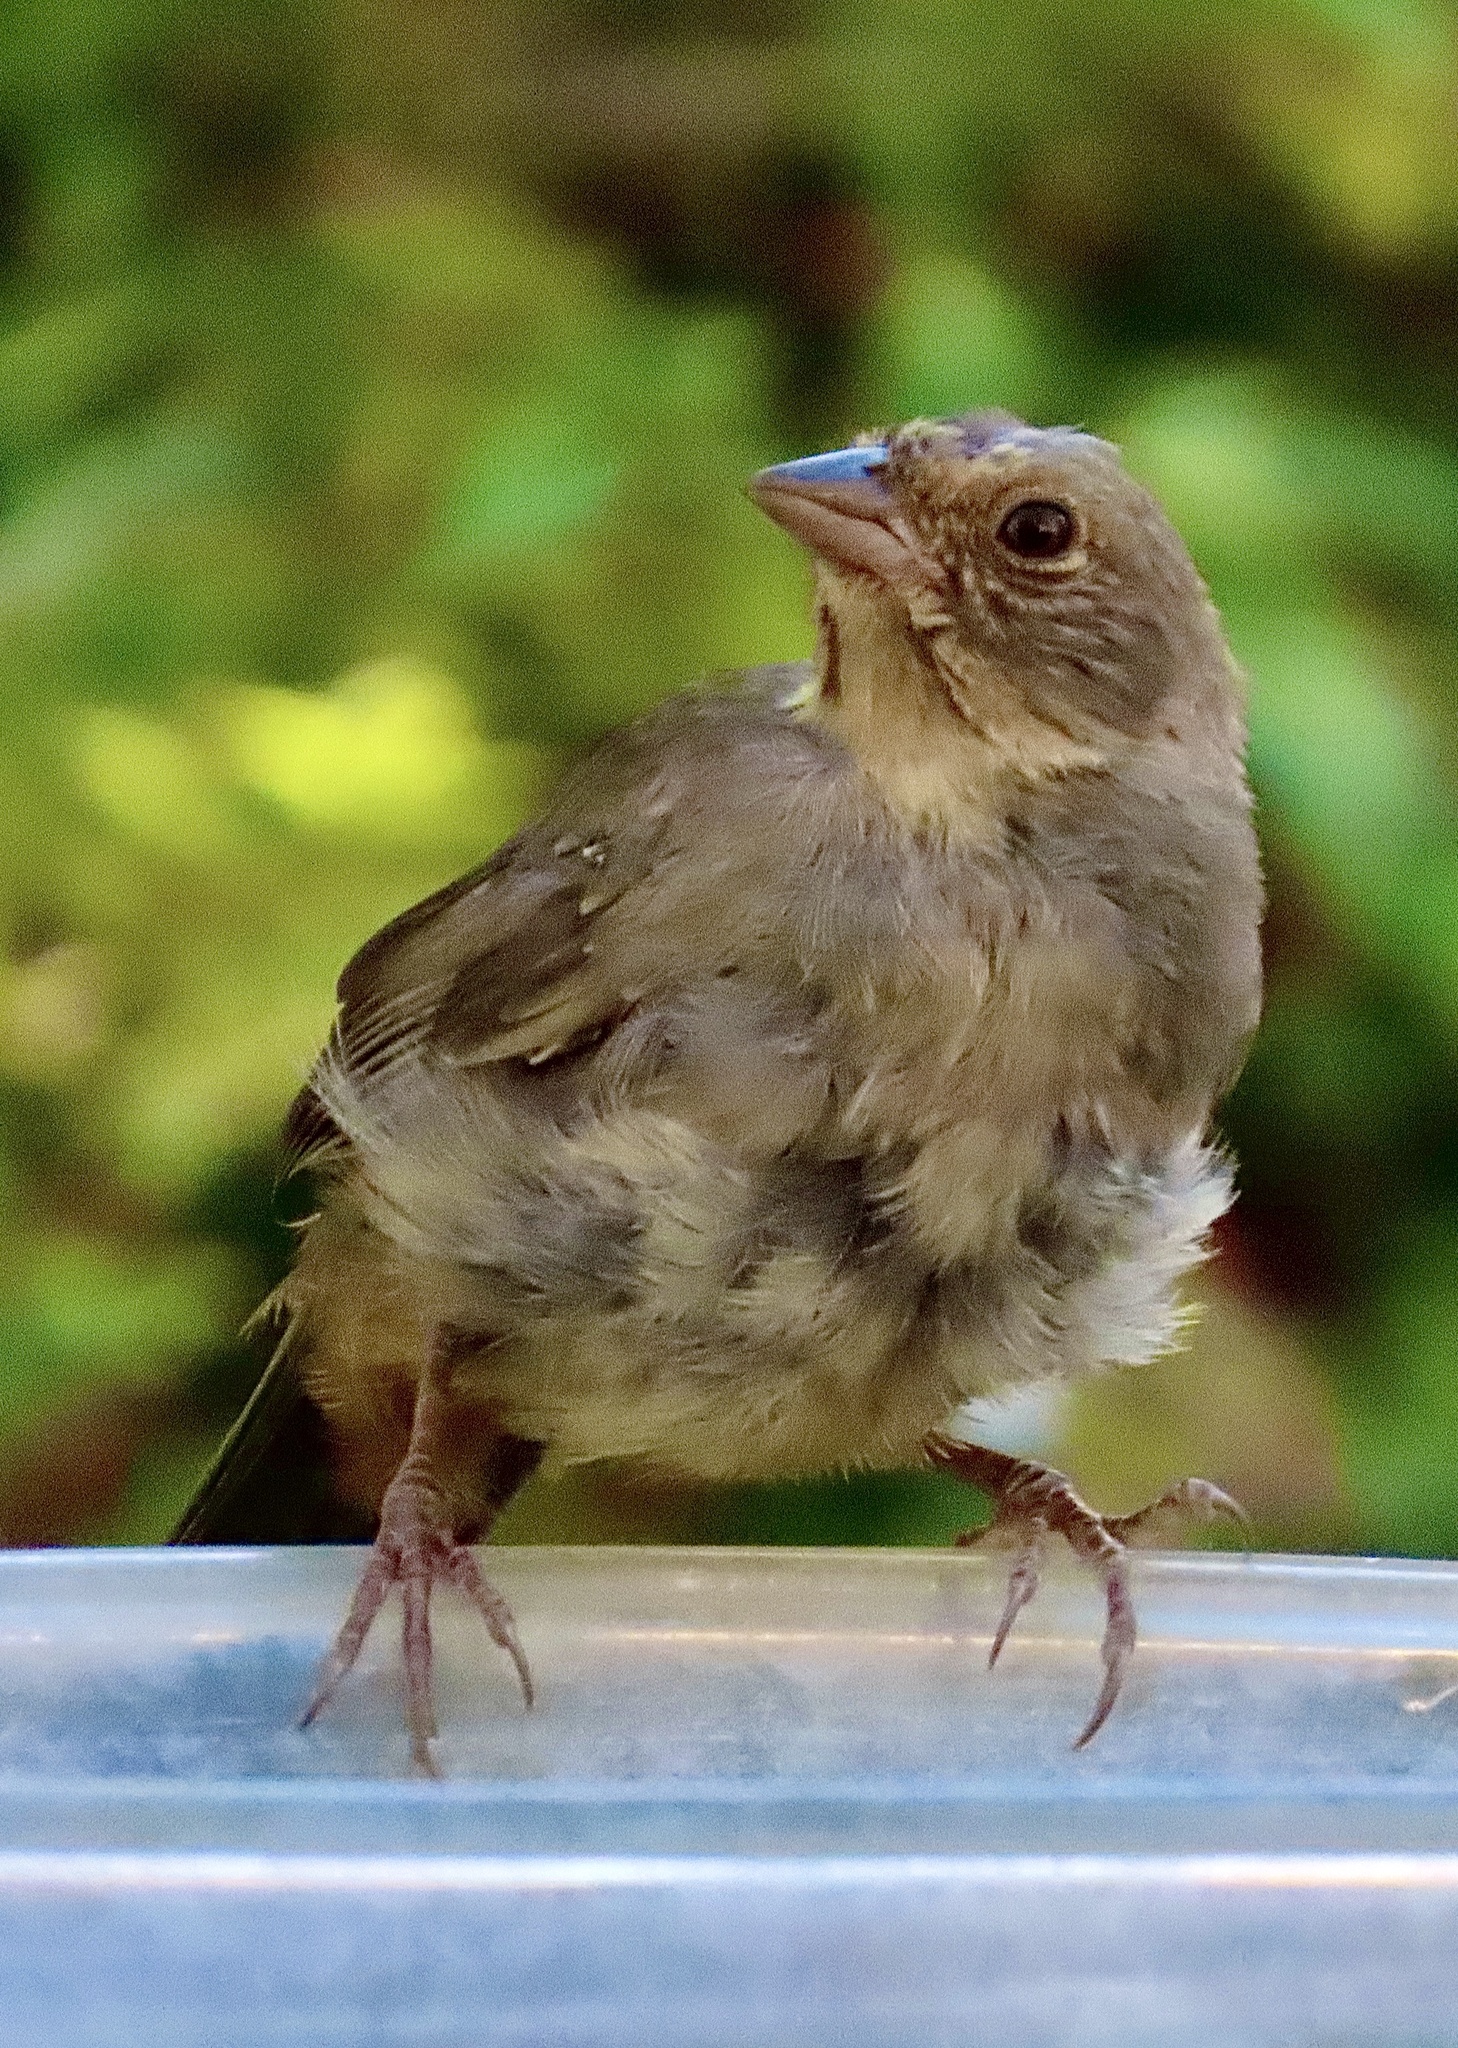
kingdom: Animalia
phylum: Chordata
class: Aves
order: Passeriformes
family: Passerellidae
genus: Melozone
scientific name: Melozone crissalis
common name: California towhee
